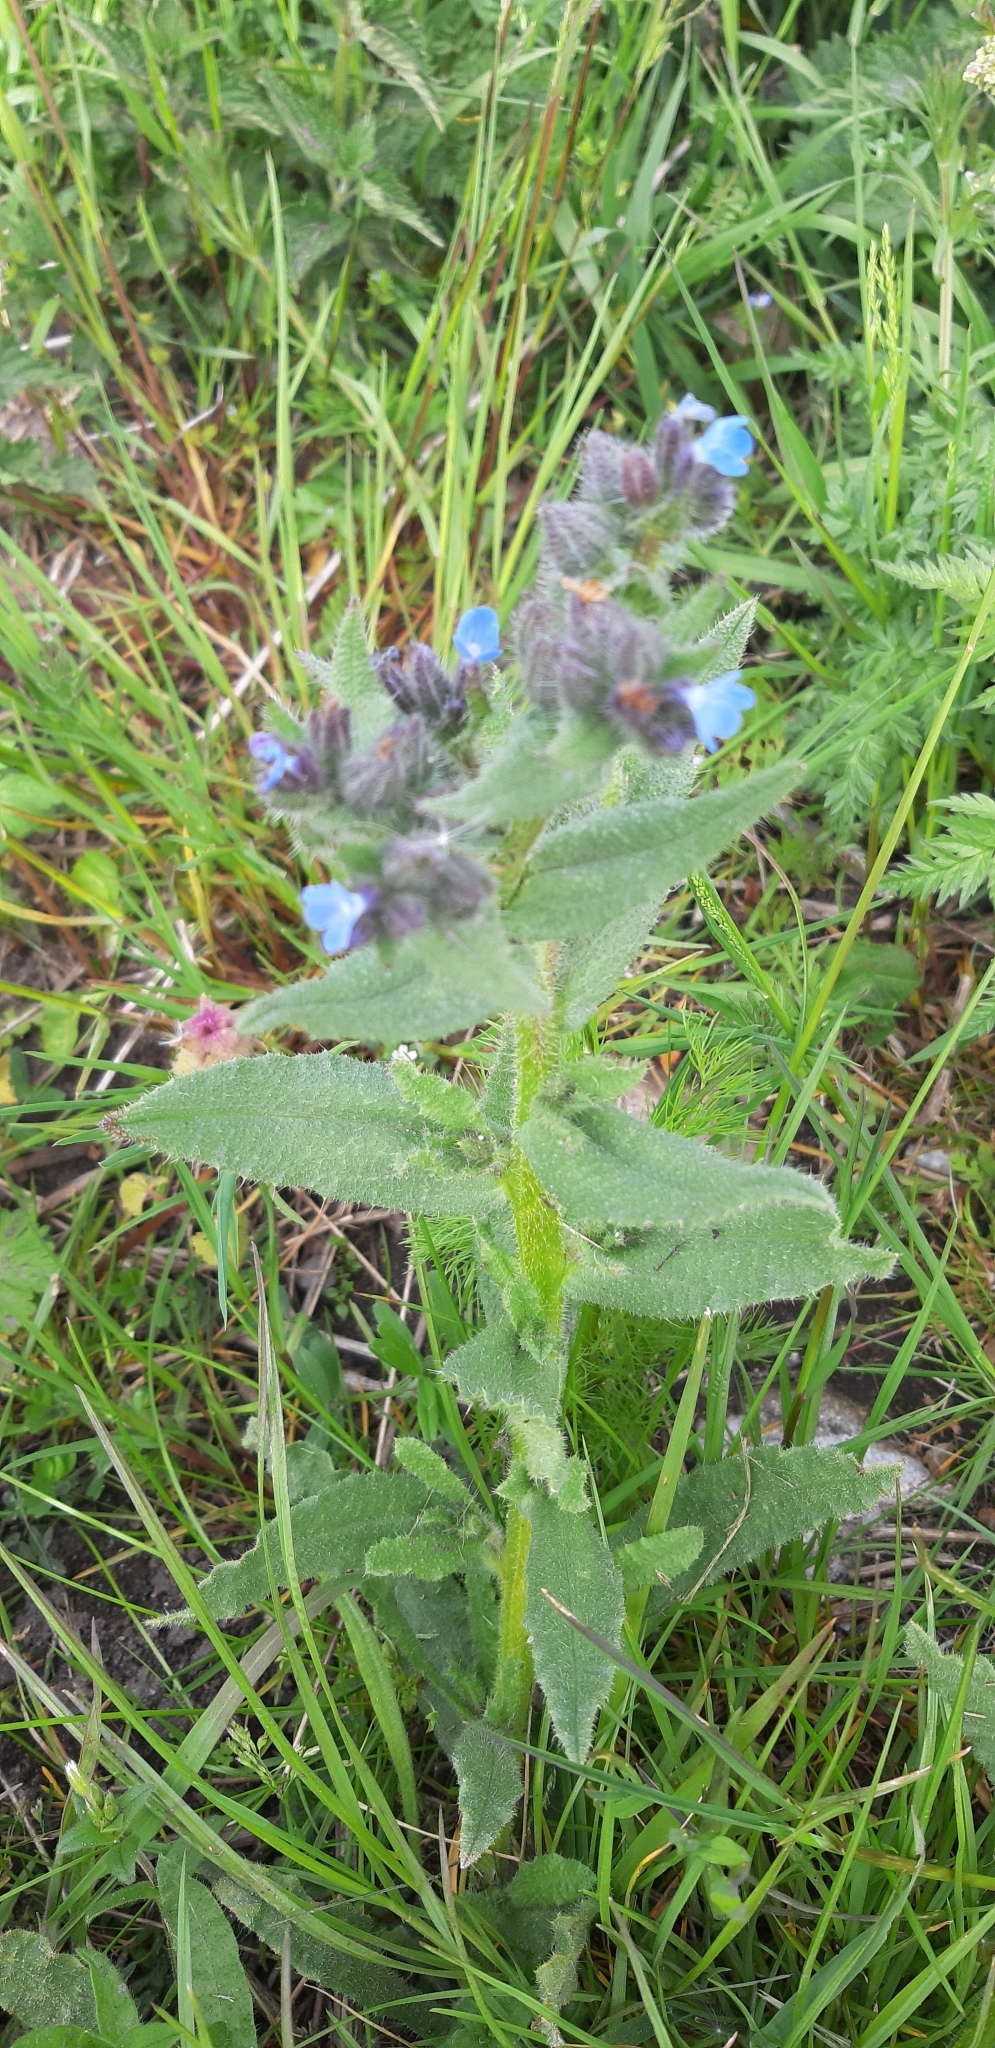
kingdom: Plantae
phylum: Tracheophyta
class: Magnoliopsida
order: Boraginales
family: Boraginaceae
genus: Lycopsis
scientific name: Lycopsis arvensis
